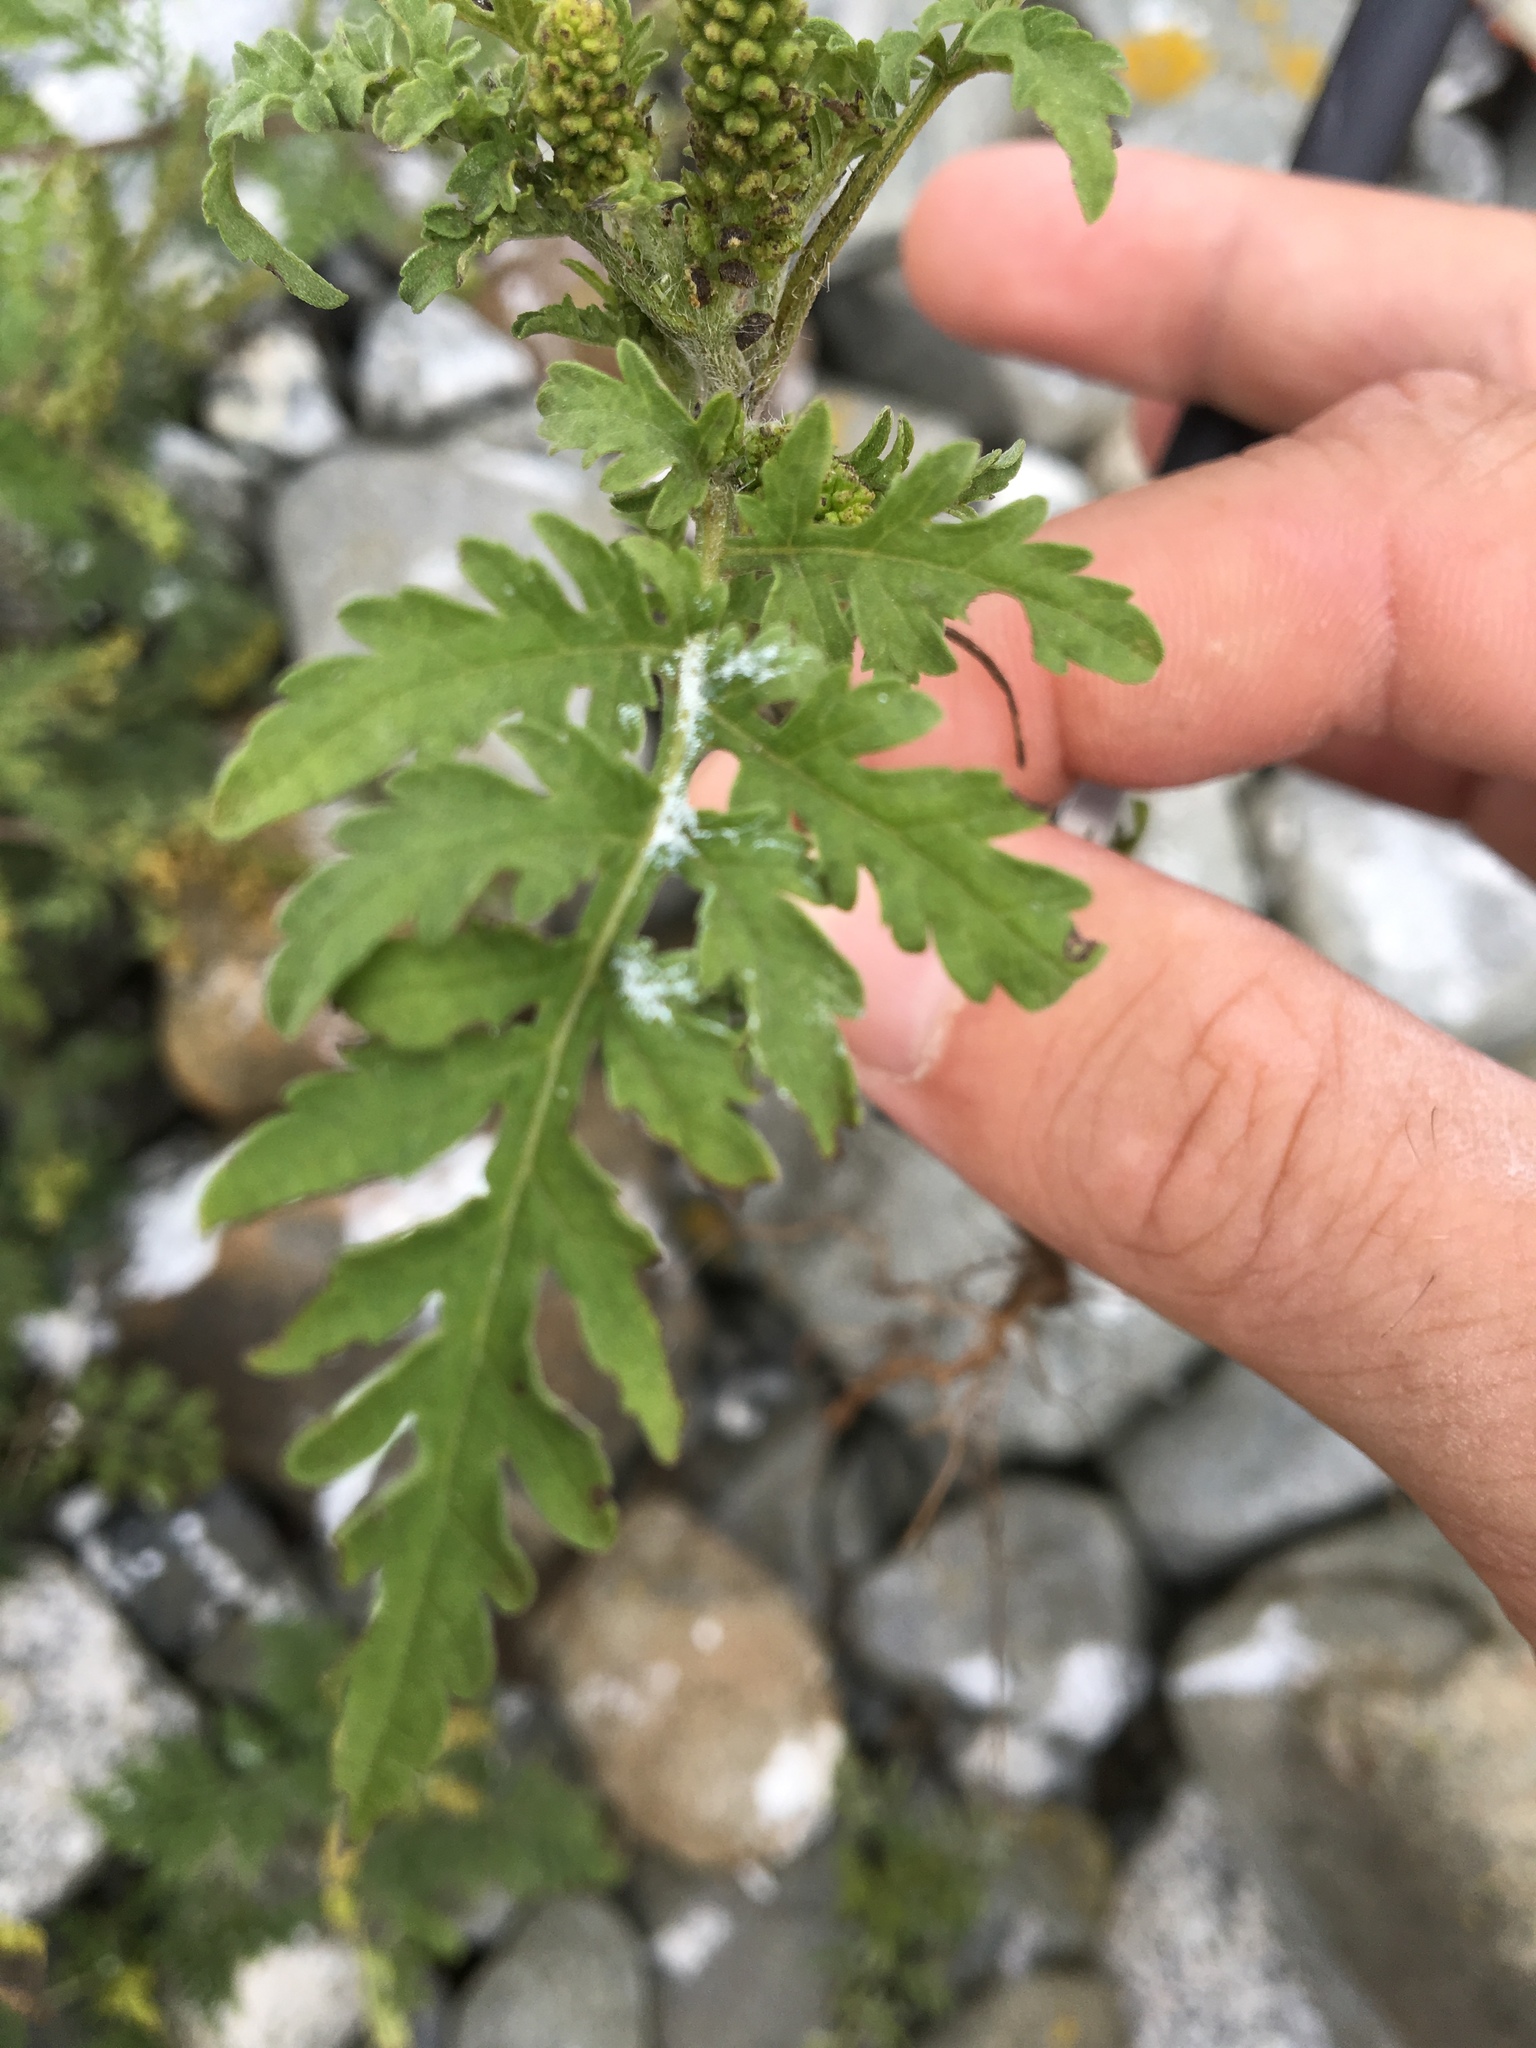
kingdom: Plantae
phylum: Tracheophyta
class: Magnoliopsida
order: Asterales
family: Asteraceae
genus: Ambrosia
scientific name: Ambrosia artemisiifolia
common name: Annual ragweed
